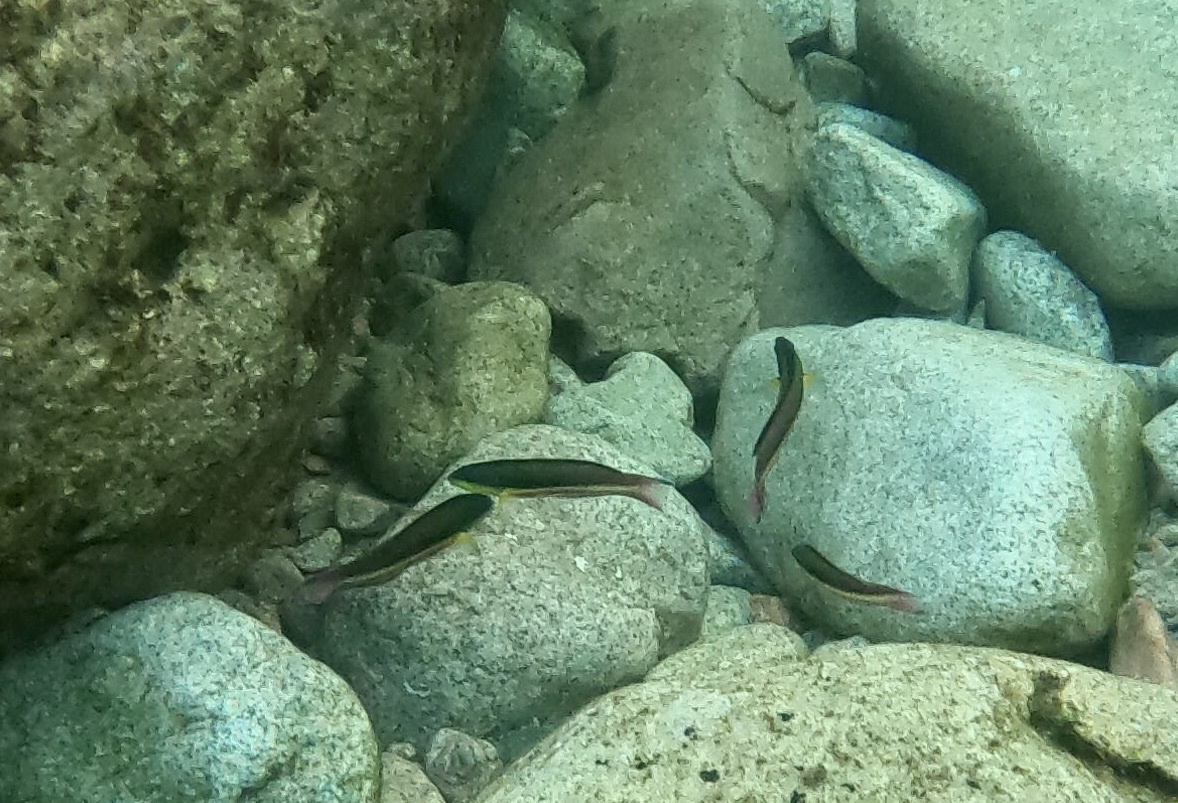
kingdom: Animalia
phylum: Chordata
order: Perciformes
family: Labridae
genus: Thalassoma
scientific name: Thalassoma lucasanum
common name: Cortez rainbow wrasse
